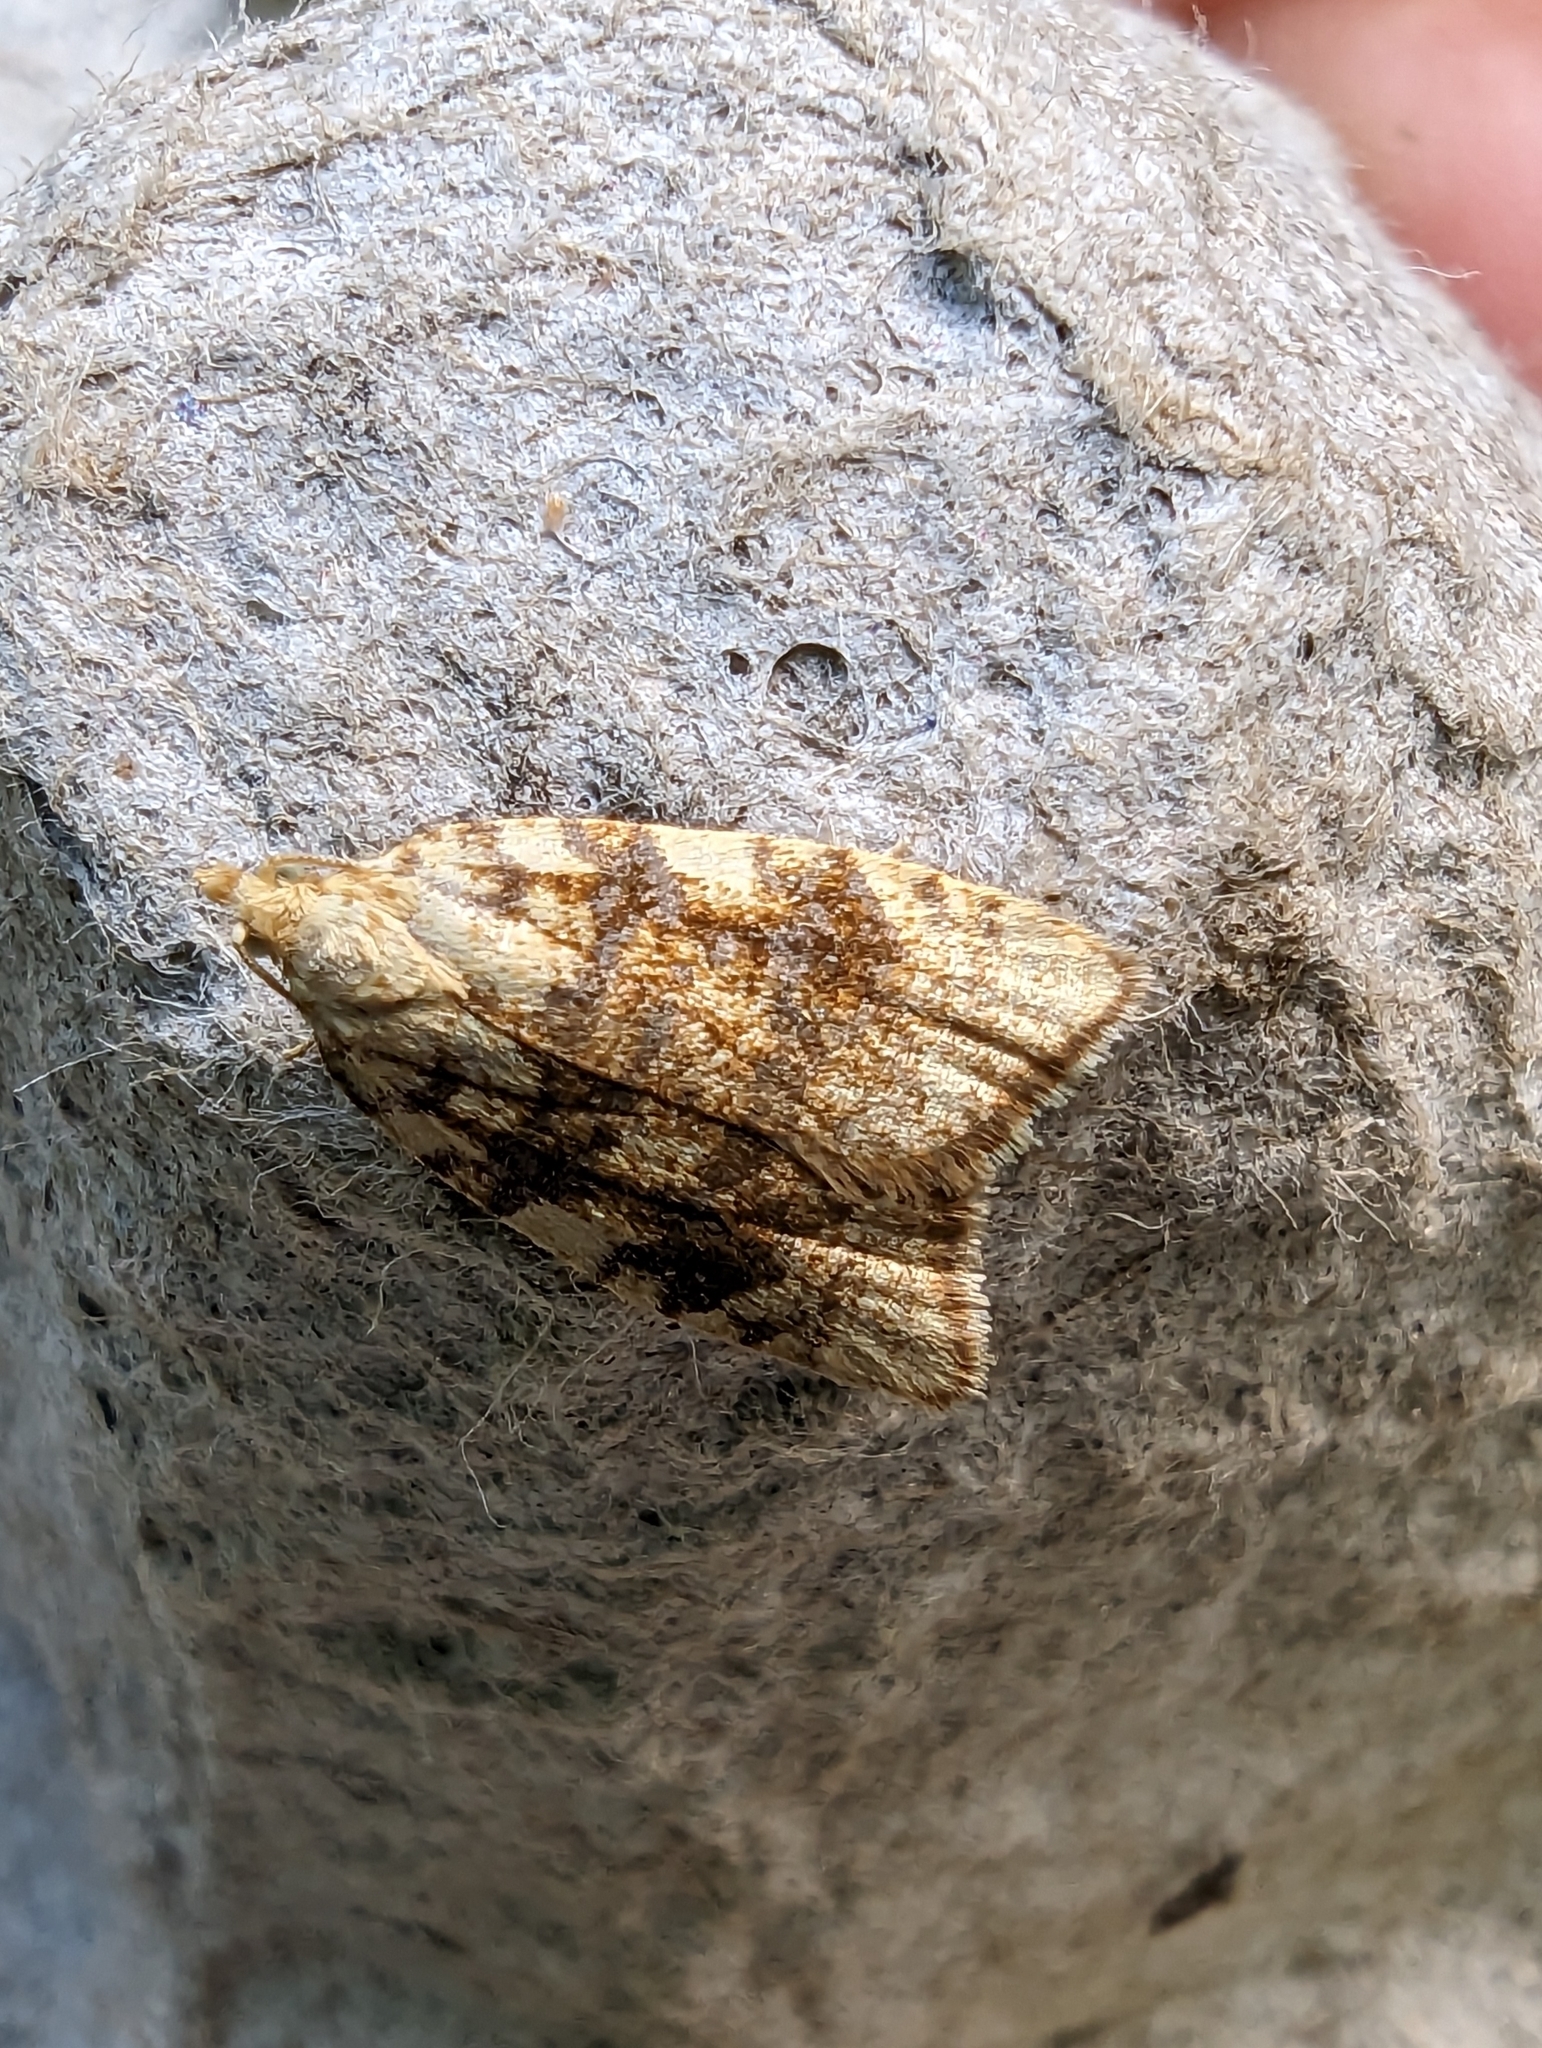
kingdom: Animalia
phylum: Arthropoda
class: Insecta
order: Lepidoptera
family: Tortricidae
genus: Aleimma
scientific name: Aleimma loeflingiana
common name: Yellow oak button
